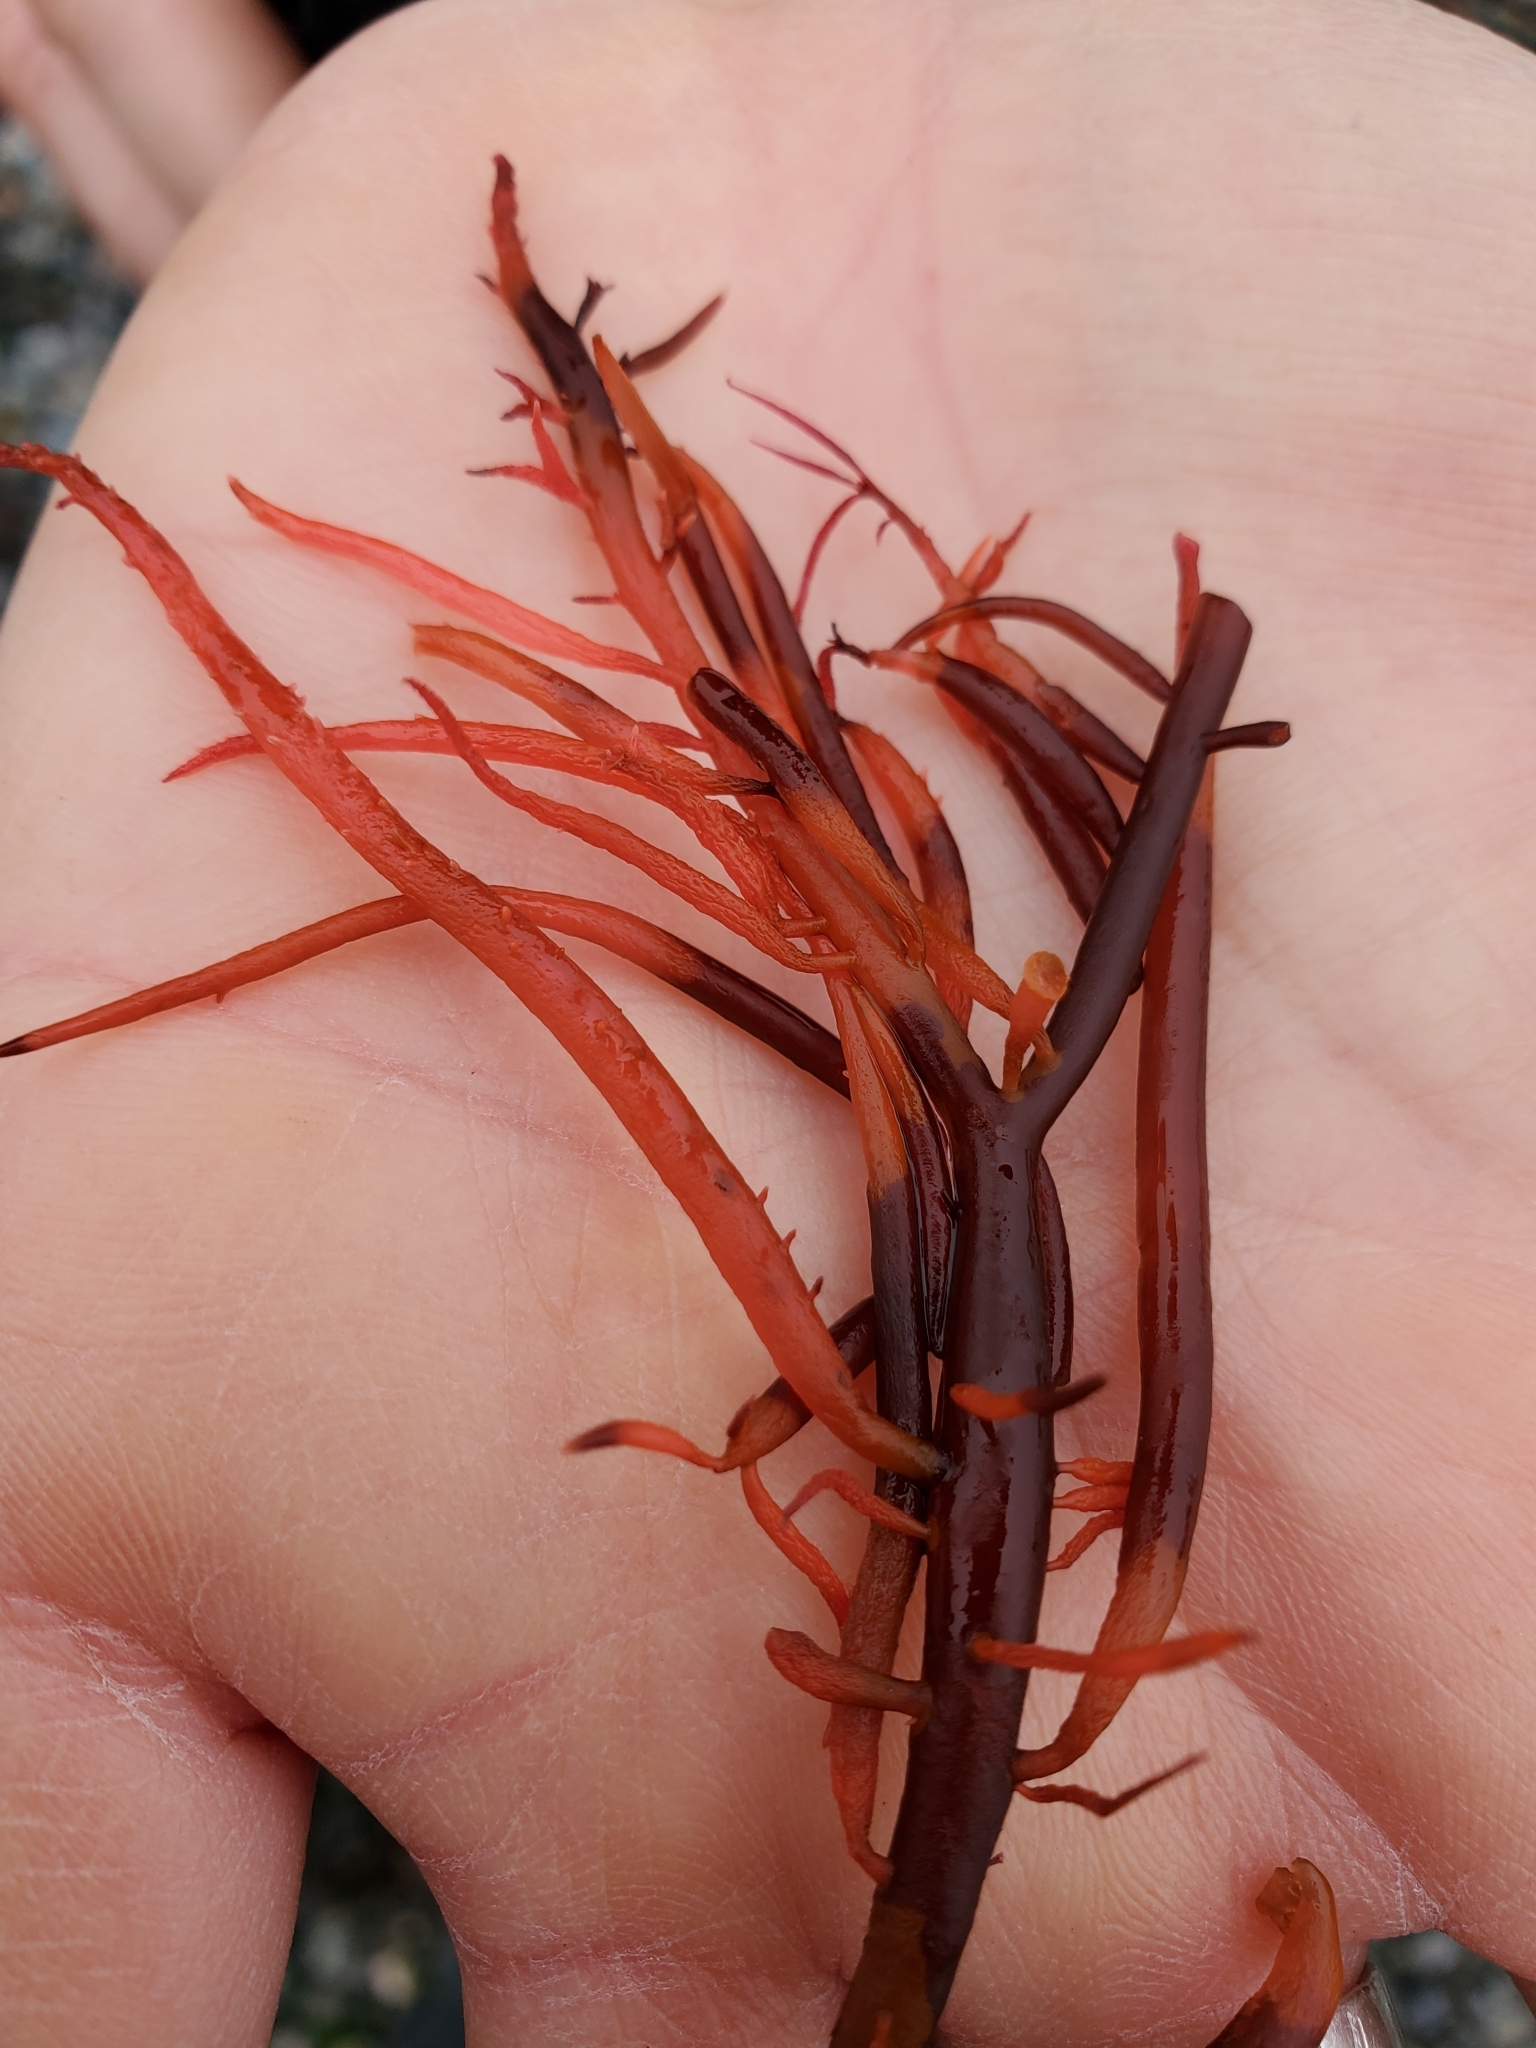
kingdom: Plantae
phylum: Rhodophyta
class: Florideophyceae
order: Gigartinales
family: Solieriaceae
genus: Sarcodiotheca
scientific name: Sarcodiotheca gaudichaudii
